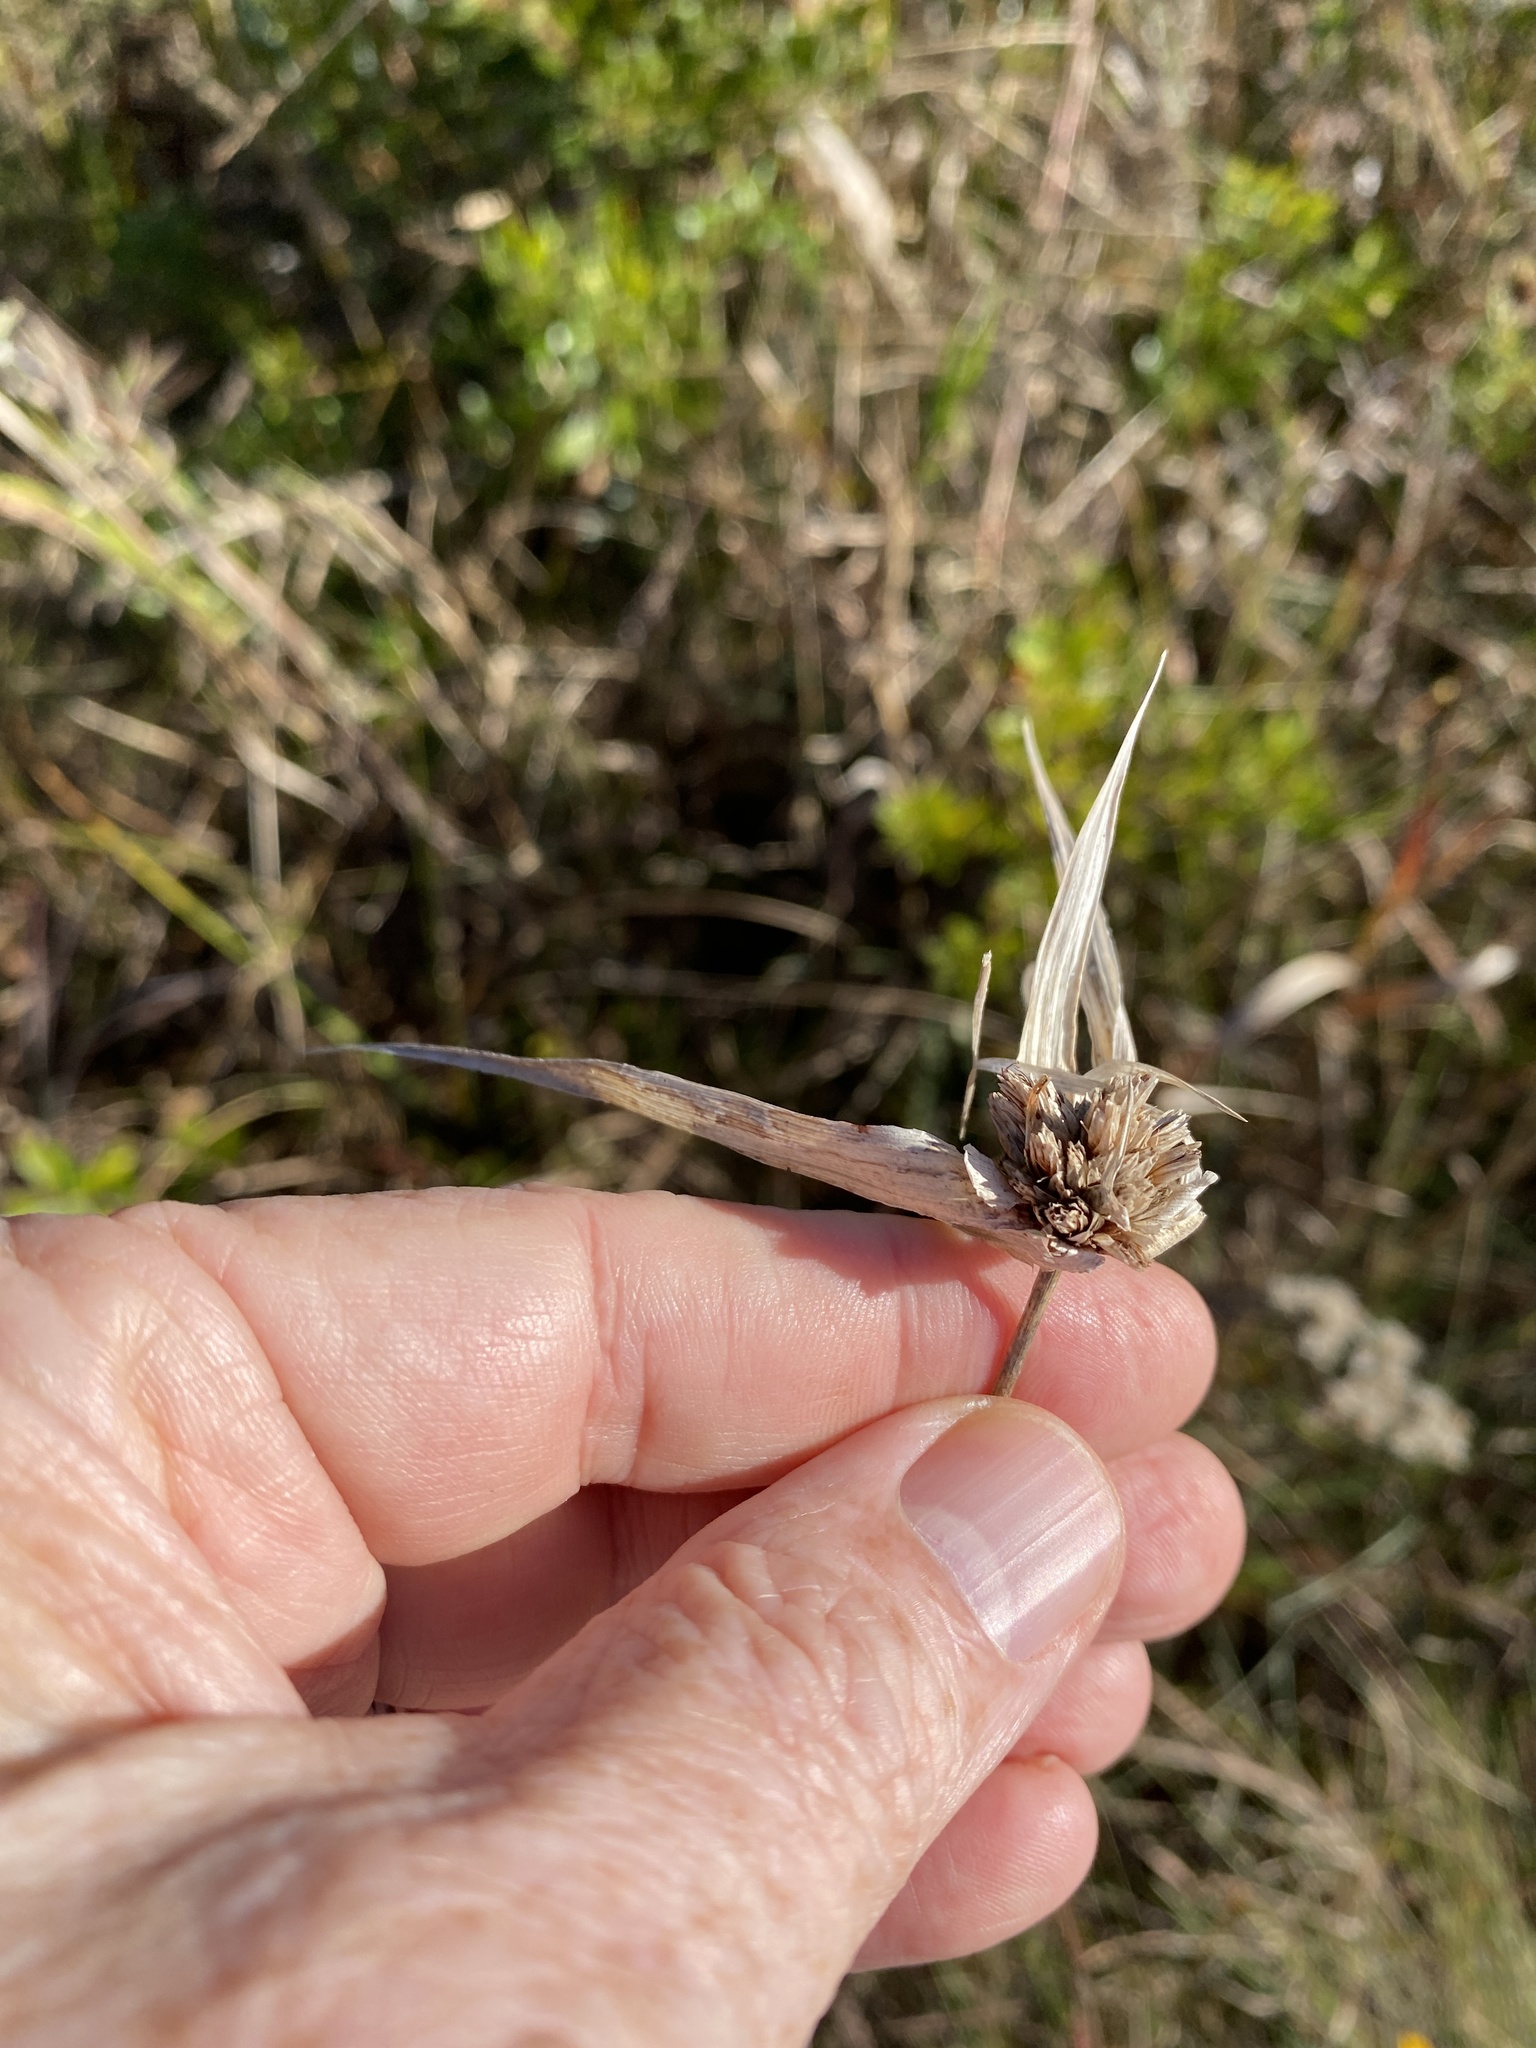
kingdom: Plantae
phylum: Tracheophyta
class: Liliopsida
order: Poales
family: Cyperaceae
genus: Rhynchospora
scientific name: Rhynchospora latifolia
